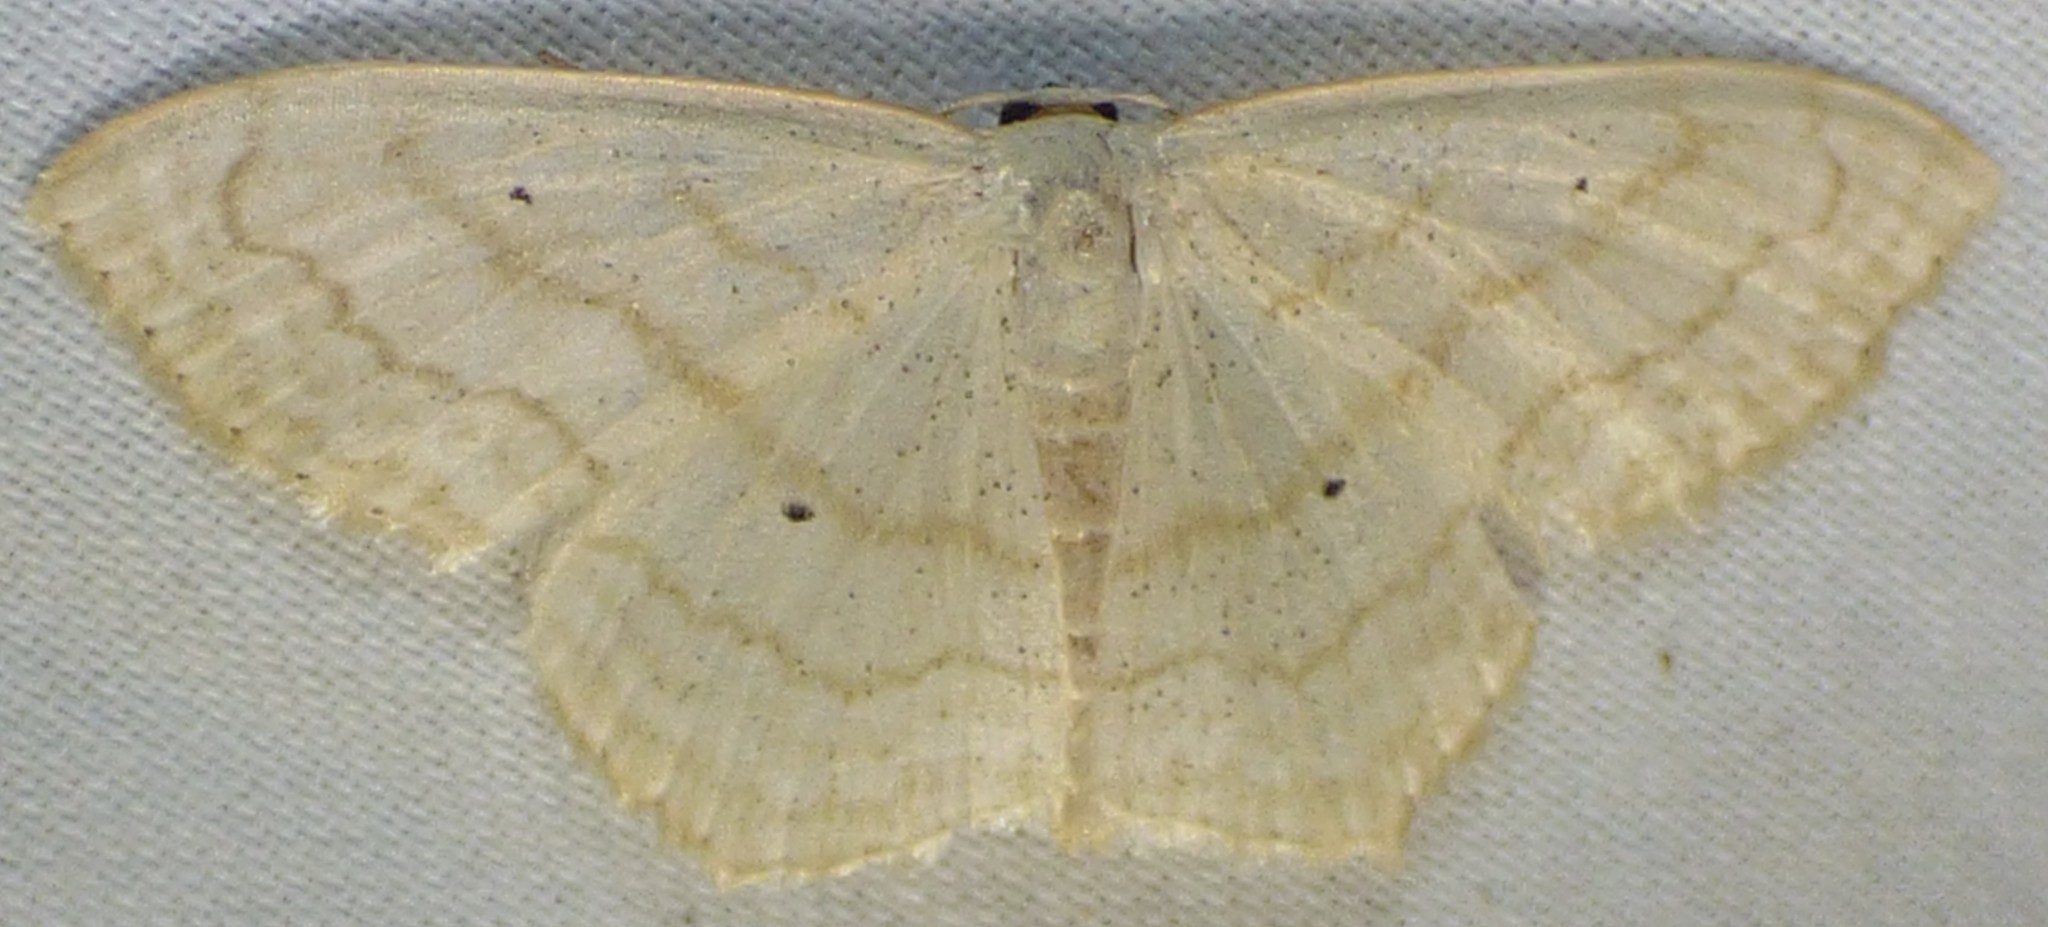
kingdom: Animalia
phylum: Arthropoda
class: Insecta
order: Lepidoptera
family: Geometridae
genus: Scopula
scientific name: Scopula limboundata
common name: Large lace border
